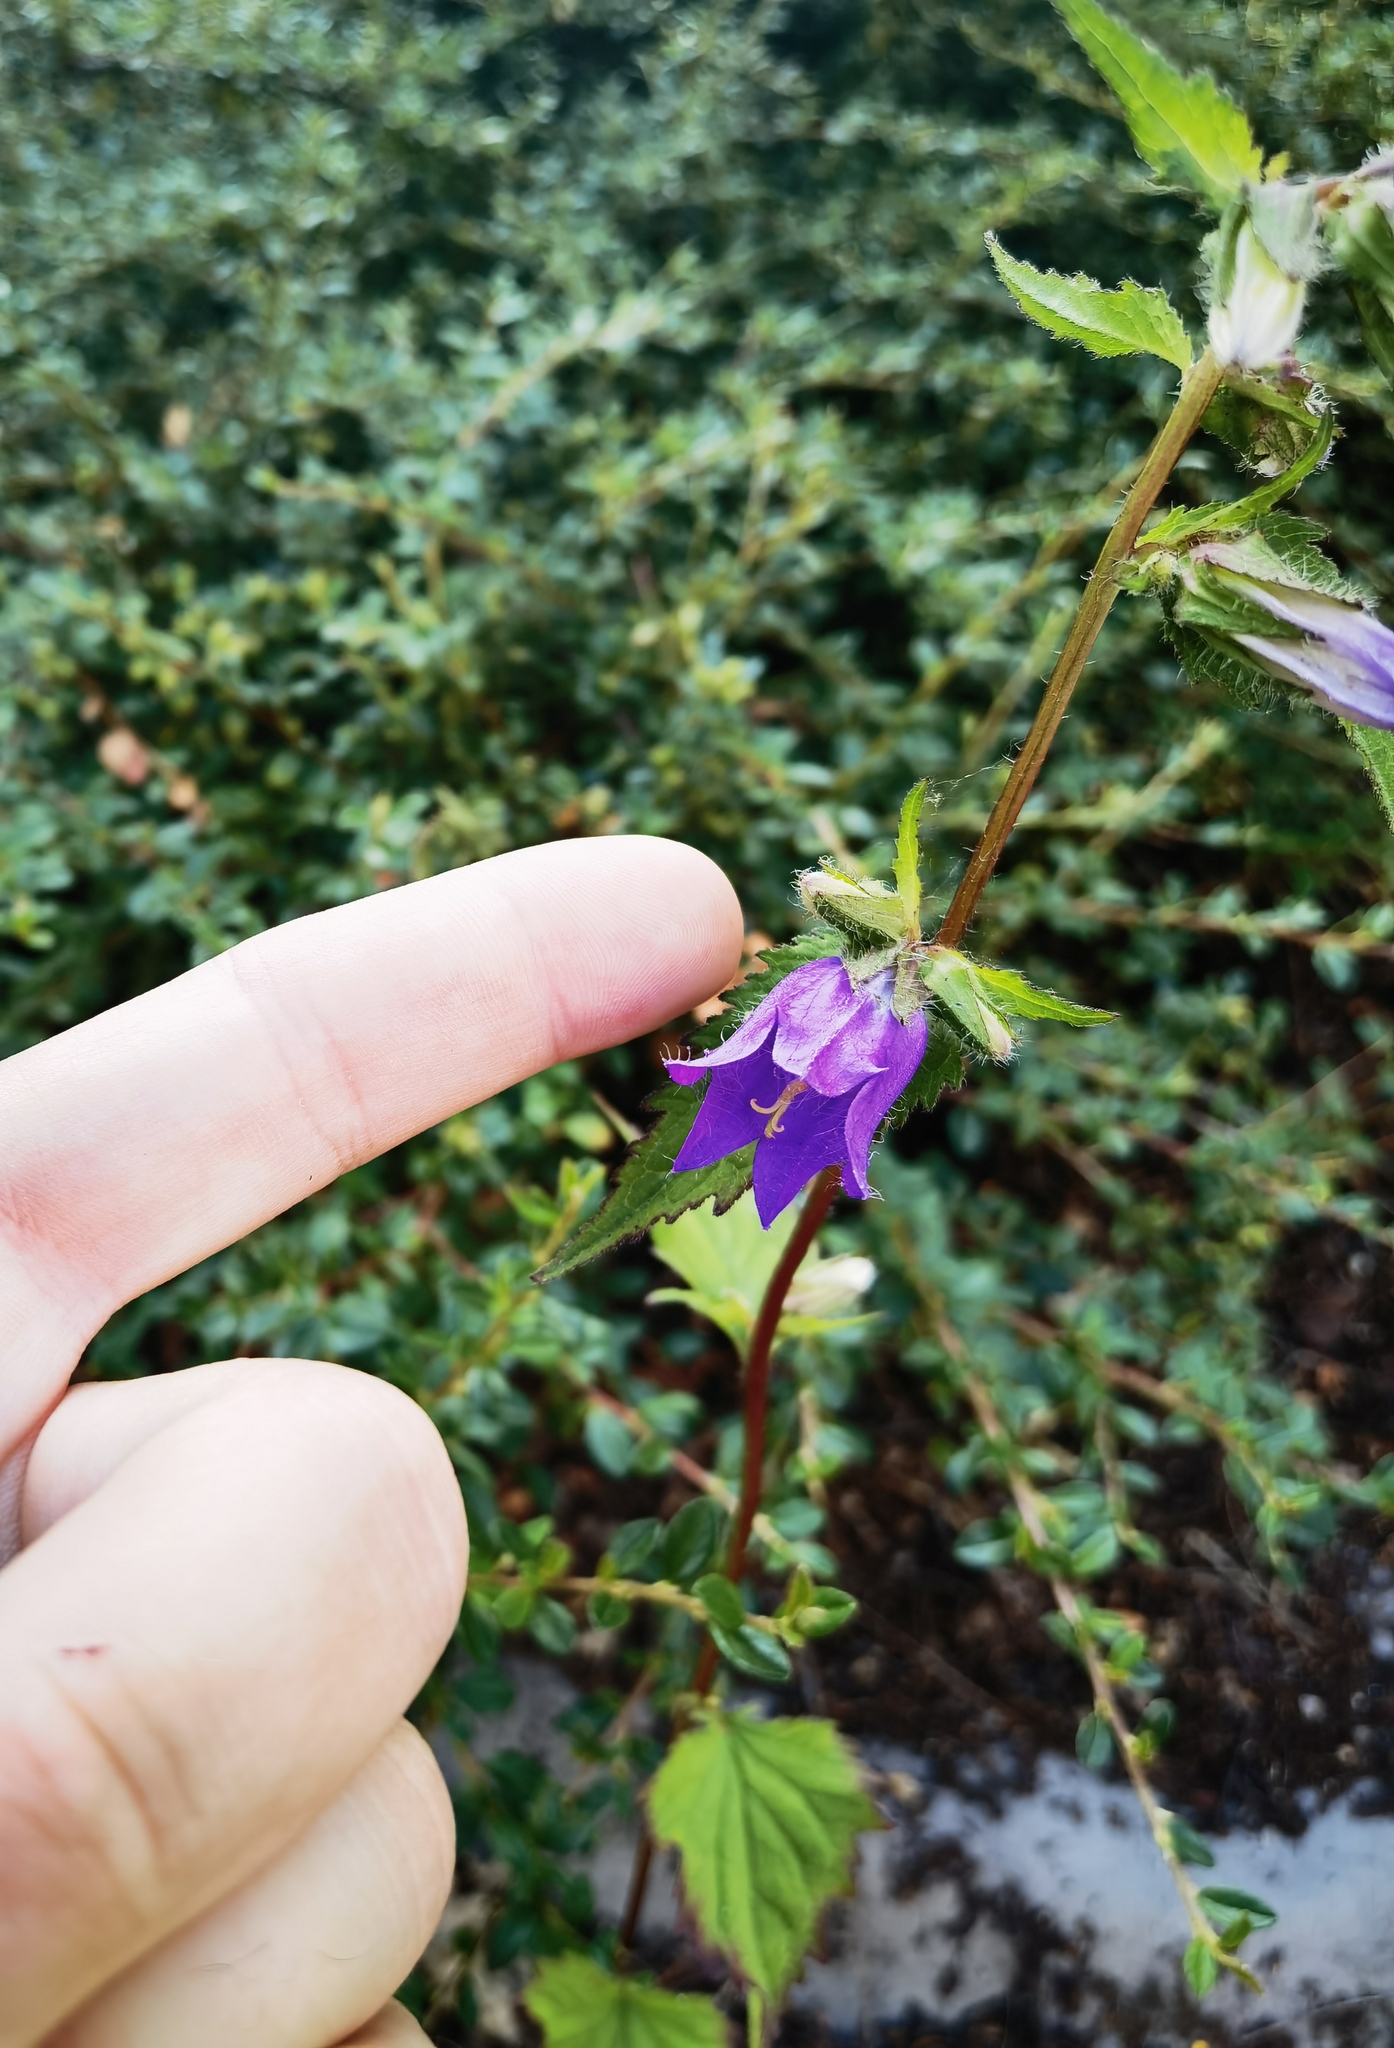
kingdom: Plantae
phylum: Tracheophyta
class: Magnoliopsida
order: Asterales
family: Campanulaceae
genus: Campanula
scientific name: Campanula trachelium
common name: Nettle-leaved bellflower
